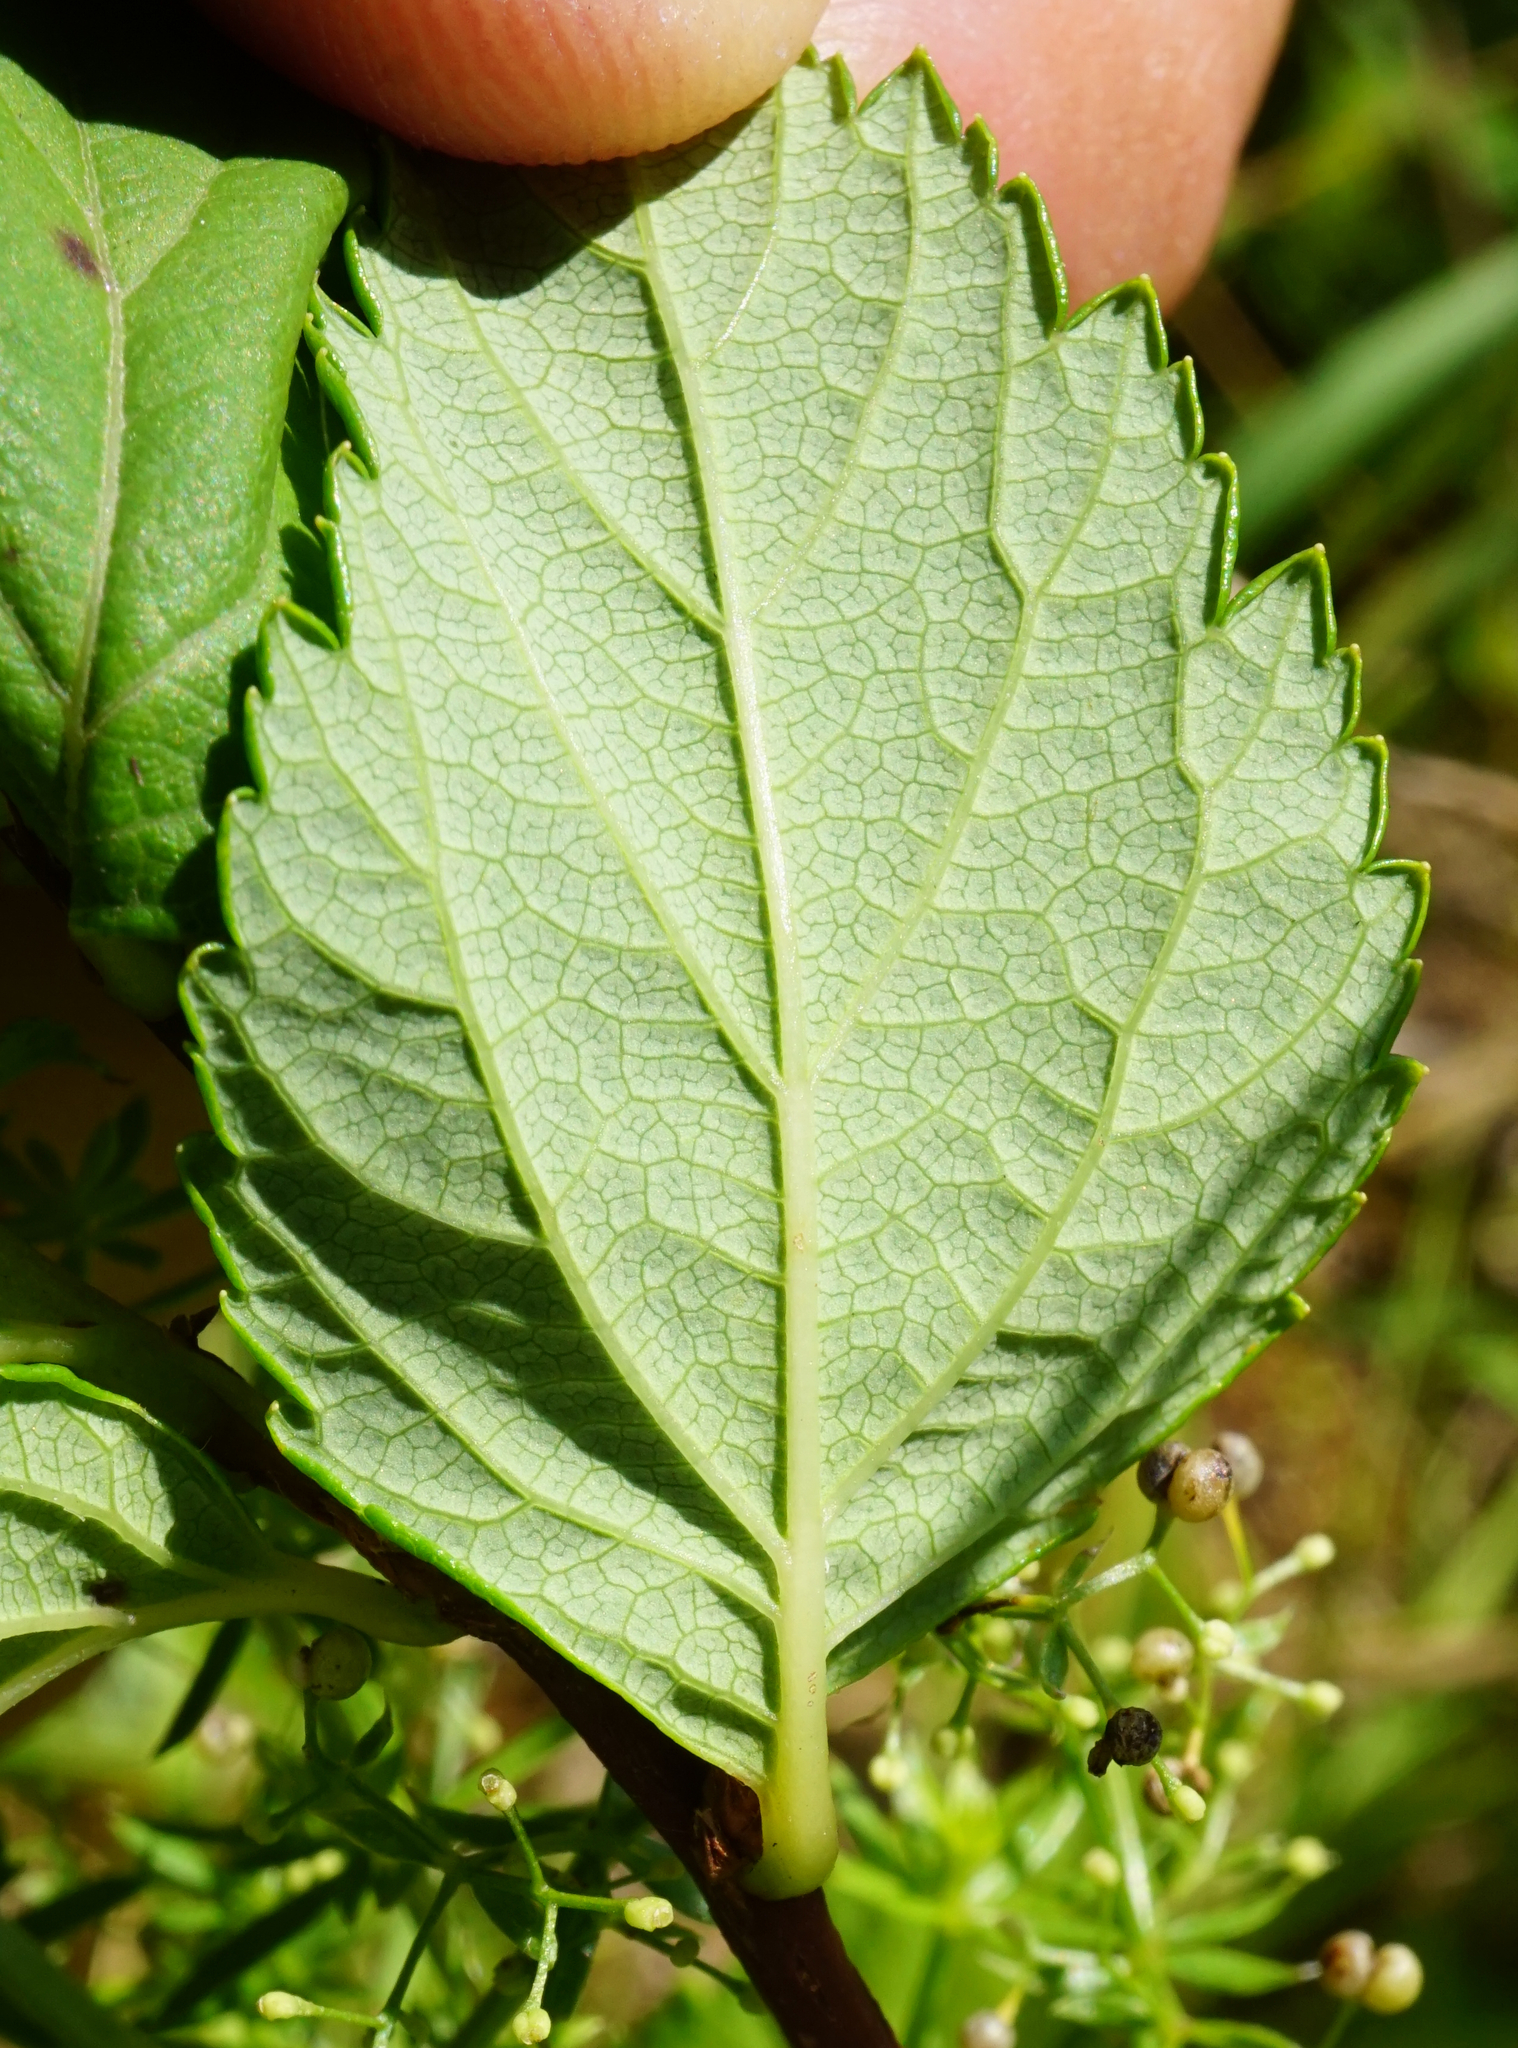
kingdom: Plantae
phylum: Tracheophyta
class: Magnoliopsida
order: Rosales
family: Rosaceae
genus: Spiraea
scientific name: Spiraea japonica
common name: Japanese spiraea
